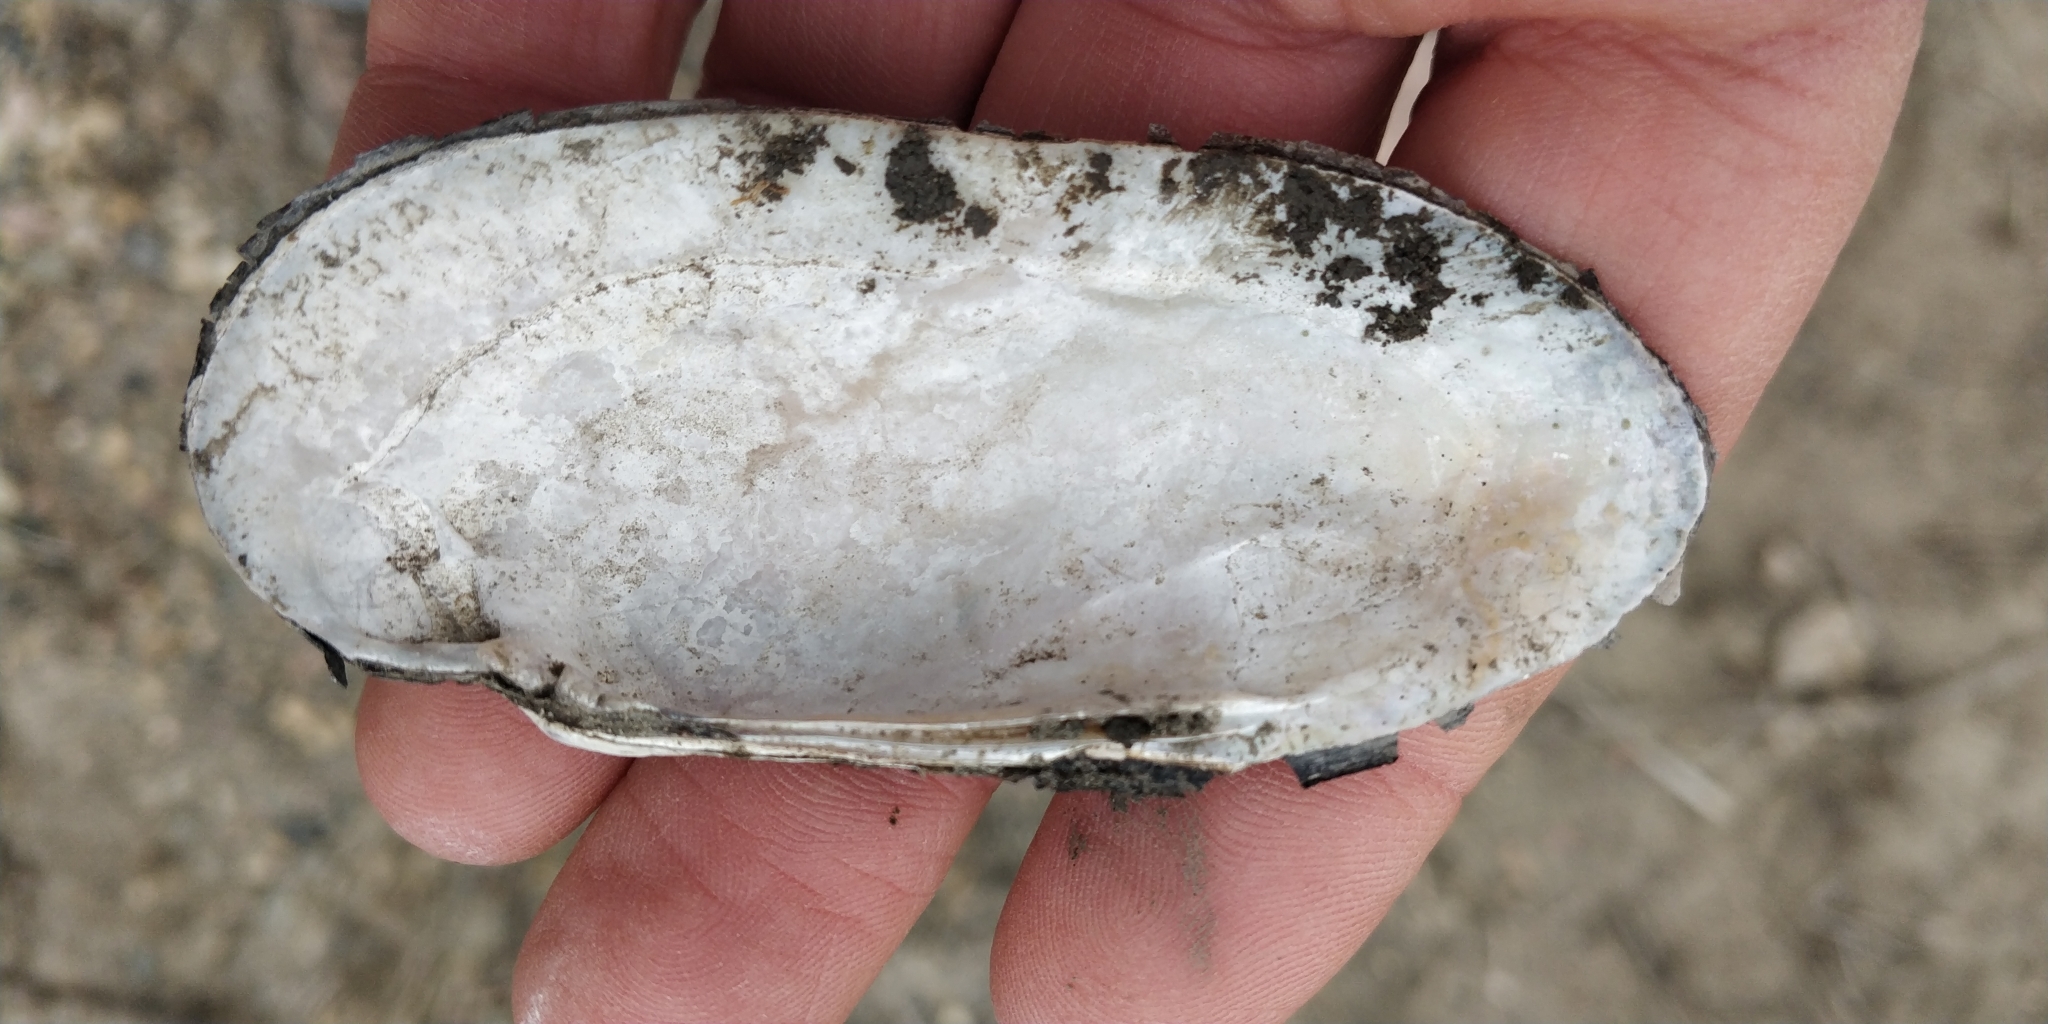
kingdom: Animalia
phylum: Mollusca
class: Bivalvia
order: Unionida
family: Unionidae
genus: Ligumia
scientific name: Ligumia recta
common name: Black sandshell
